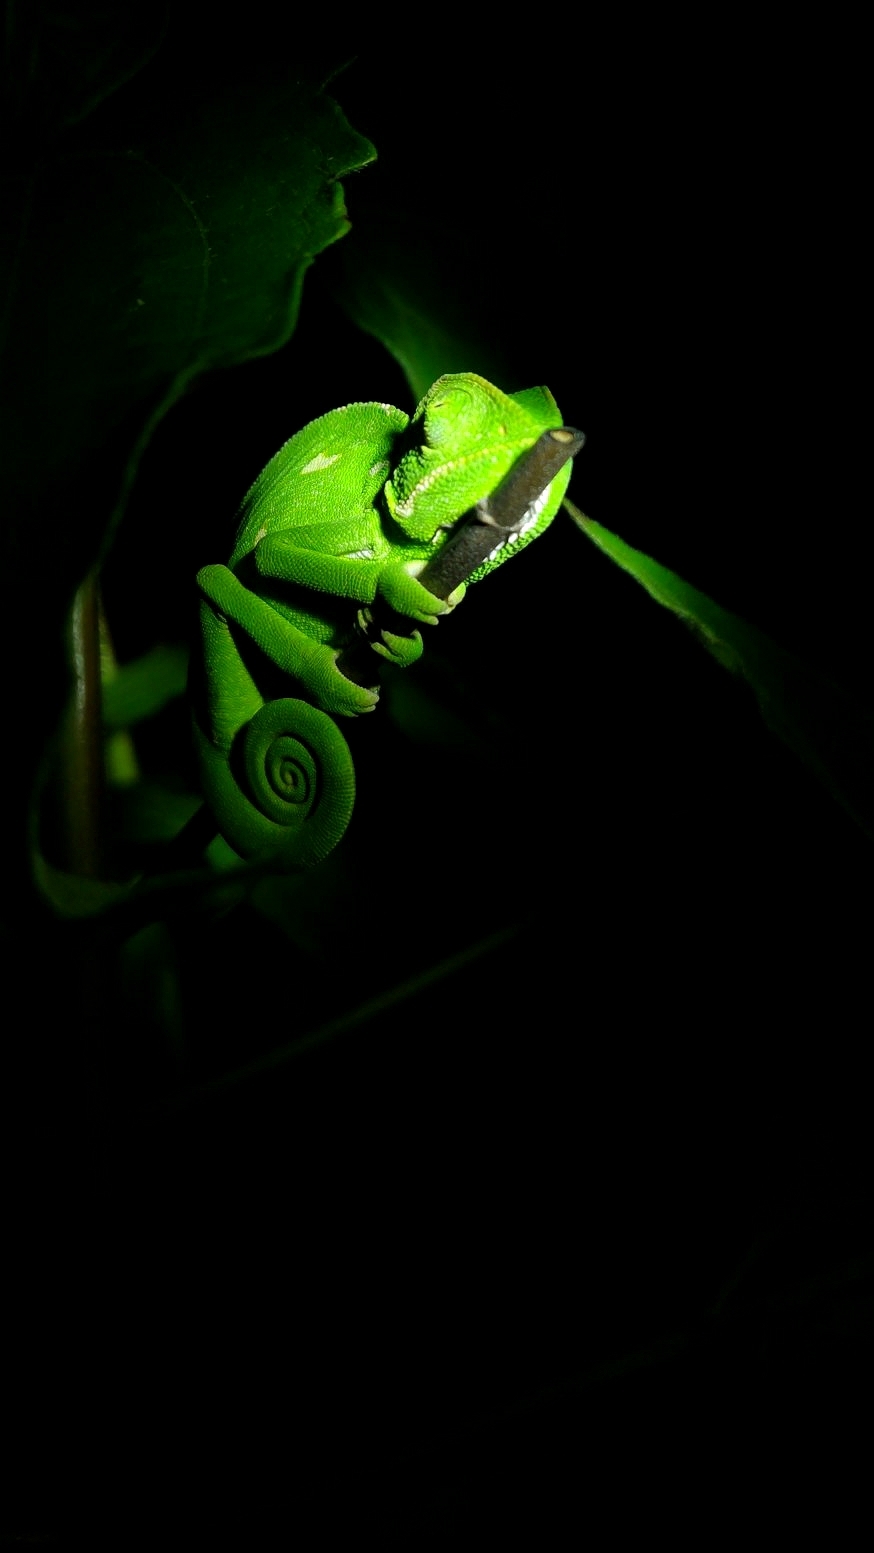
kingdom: Animalia
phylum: Chordata
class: Squamata
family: Chamaeleonidae
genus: Chamaeleo
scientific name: Chamaeleo zeylanicus
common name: Indian chameleon
